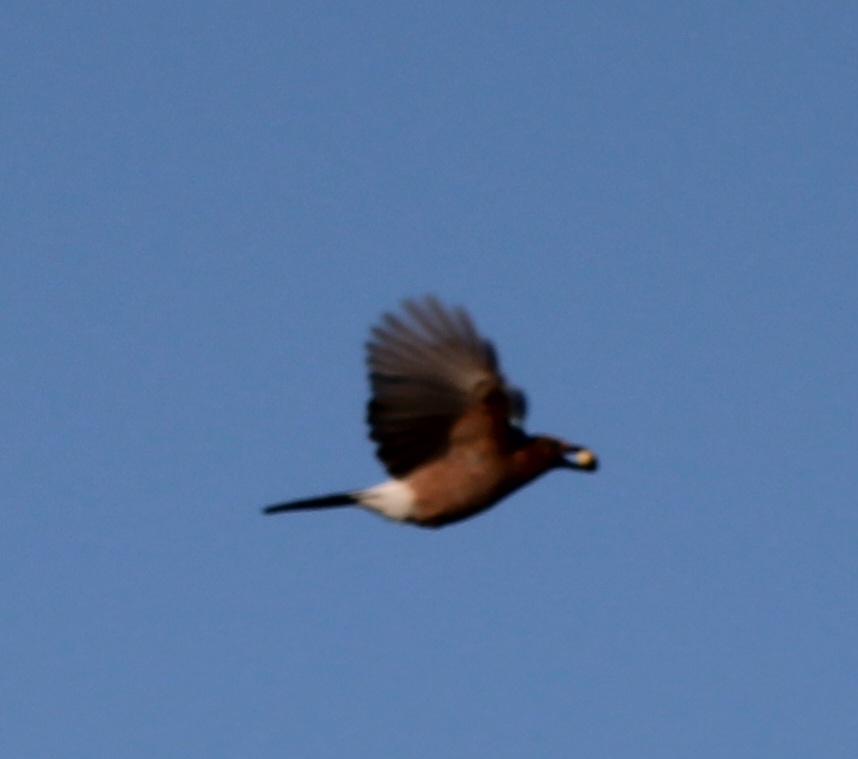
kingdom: Animalia
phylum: Chordata
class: Aves
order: Passeriformes
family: Corvidae
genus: Garrulus
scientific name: Garrulus glandarius
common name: Eurasian jay
